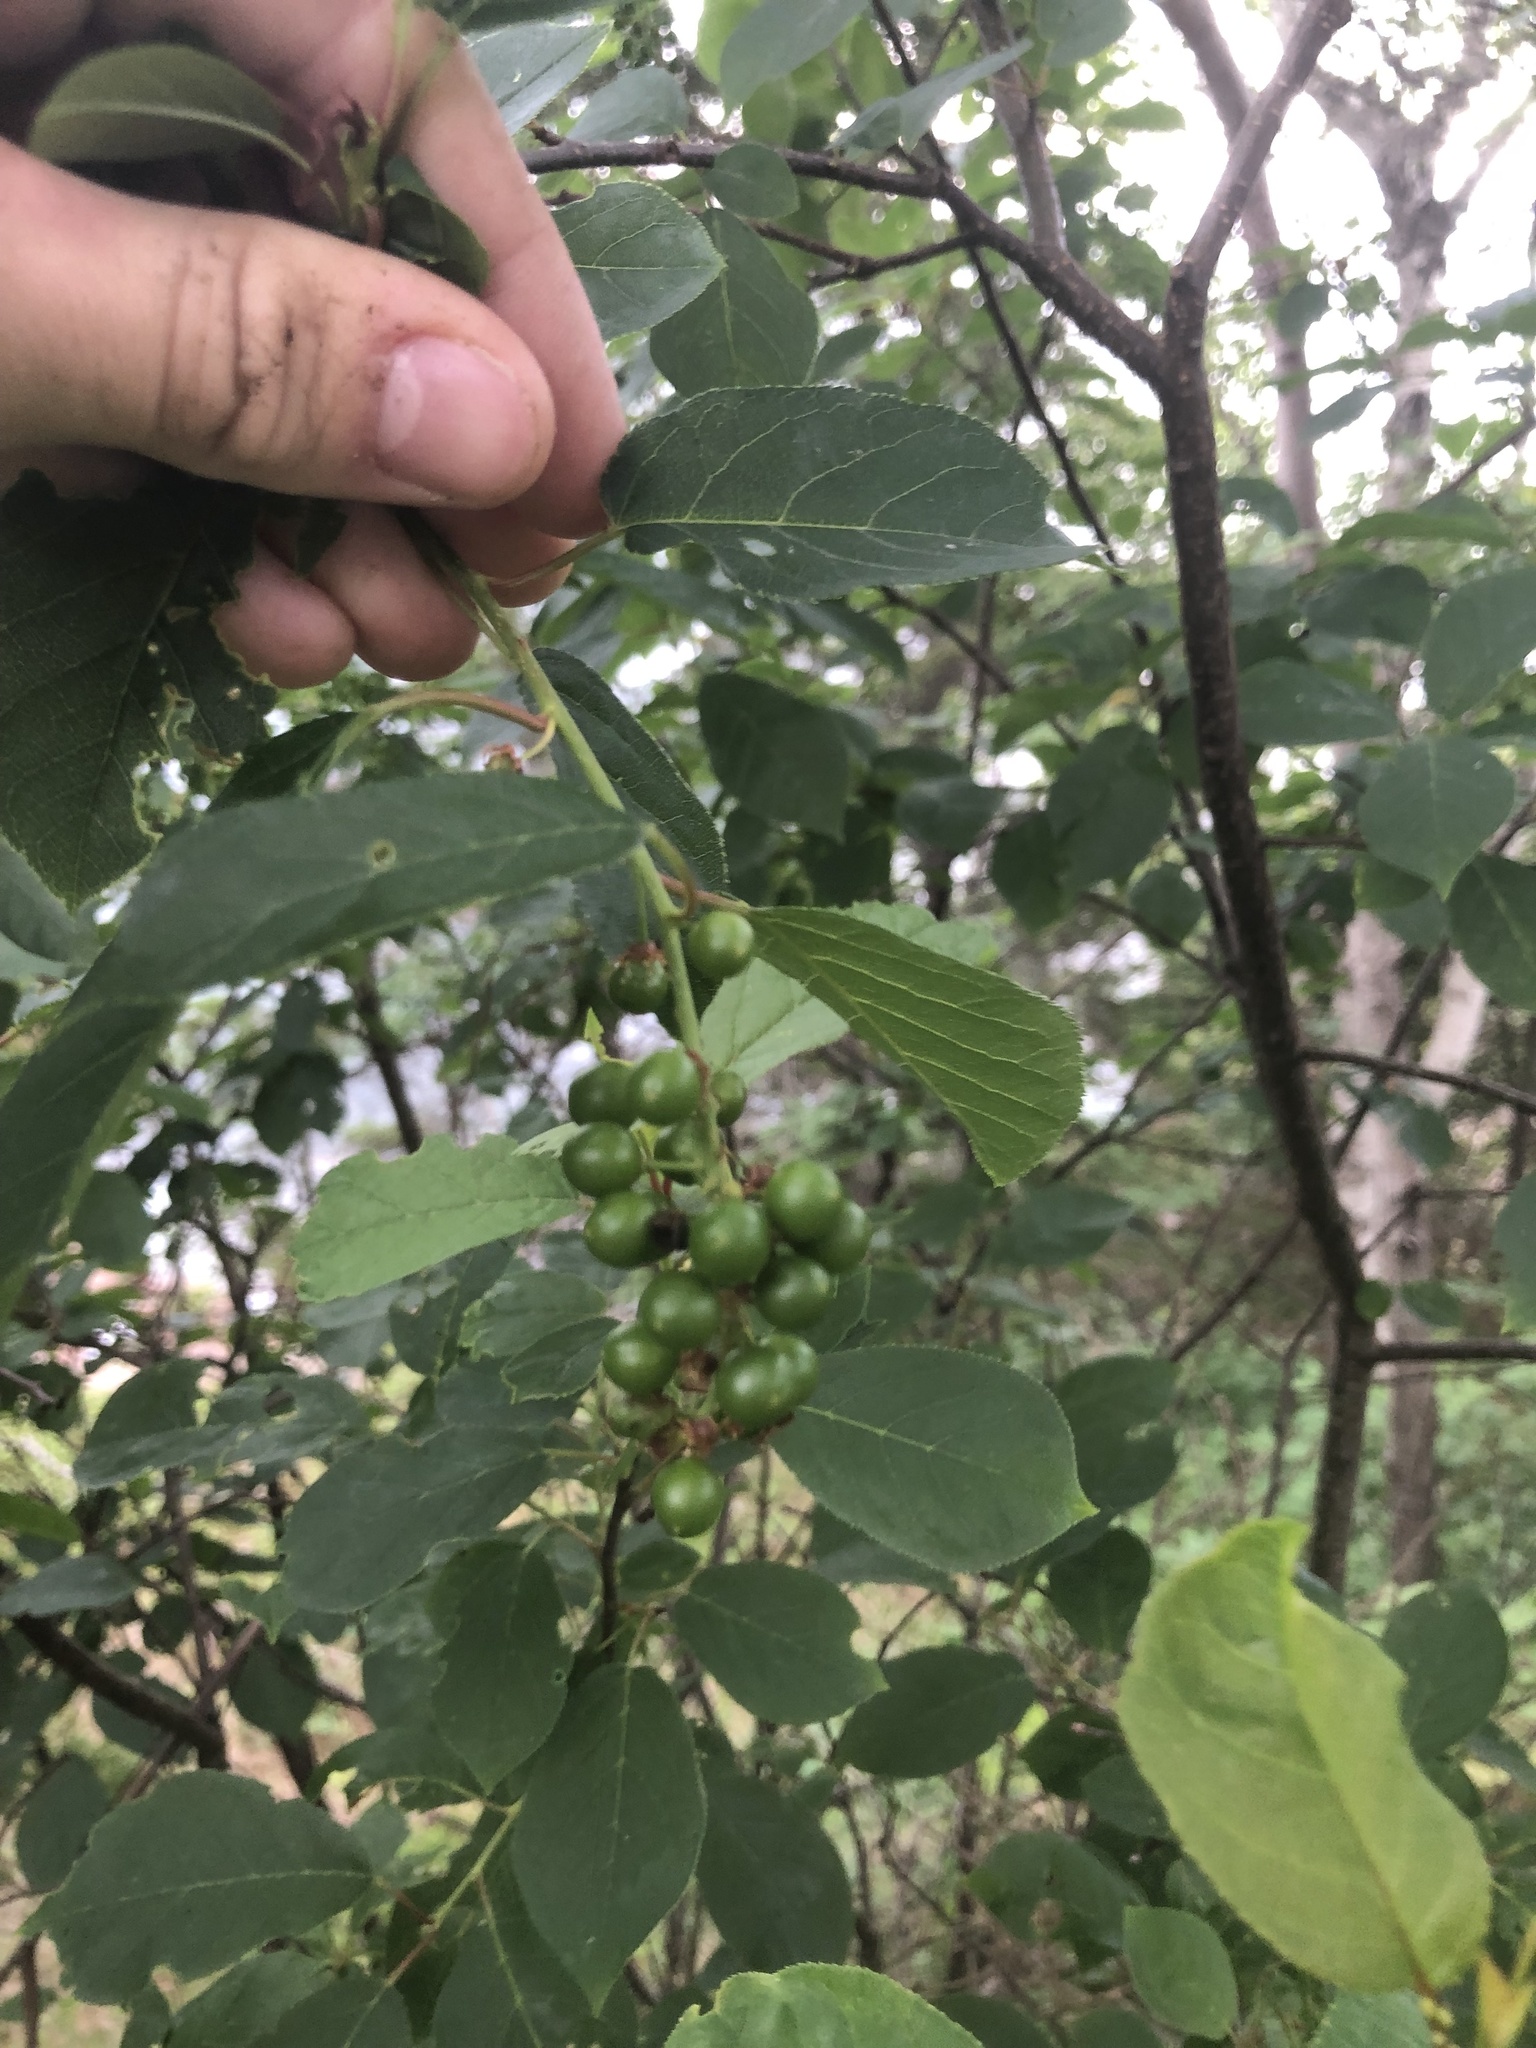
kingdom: Plantae
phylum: Tracheophyta
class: Magnoliopsida
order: Rosales
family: Rosaceae
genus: Prunus
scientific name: Prunus virginiana
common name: Chokecherry
